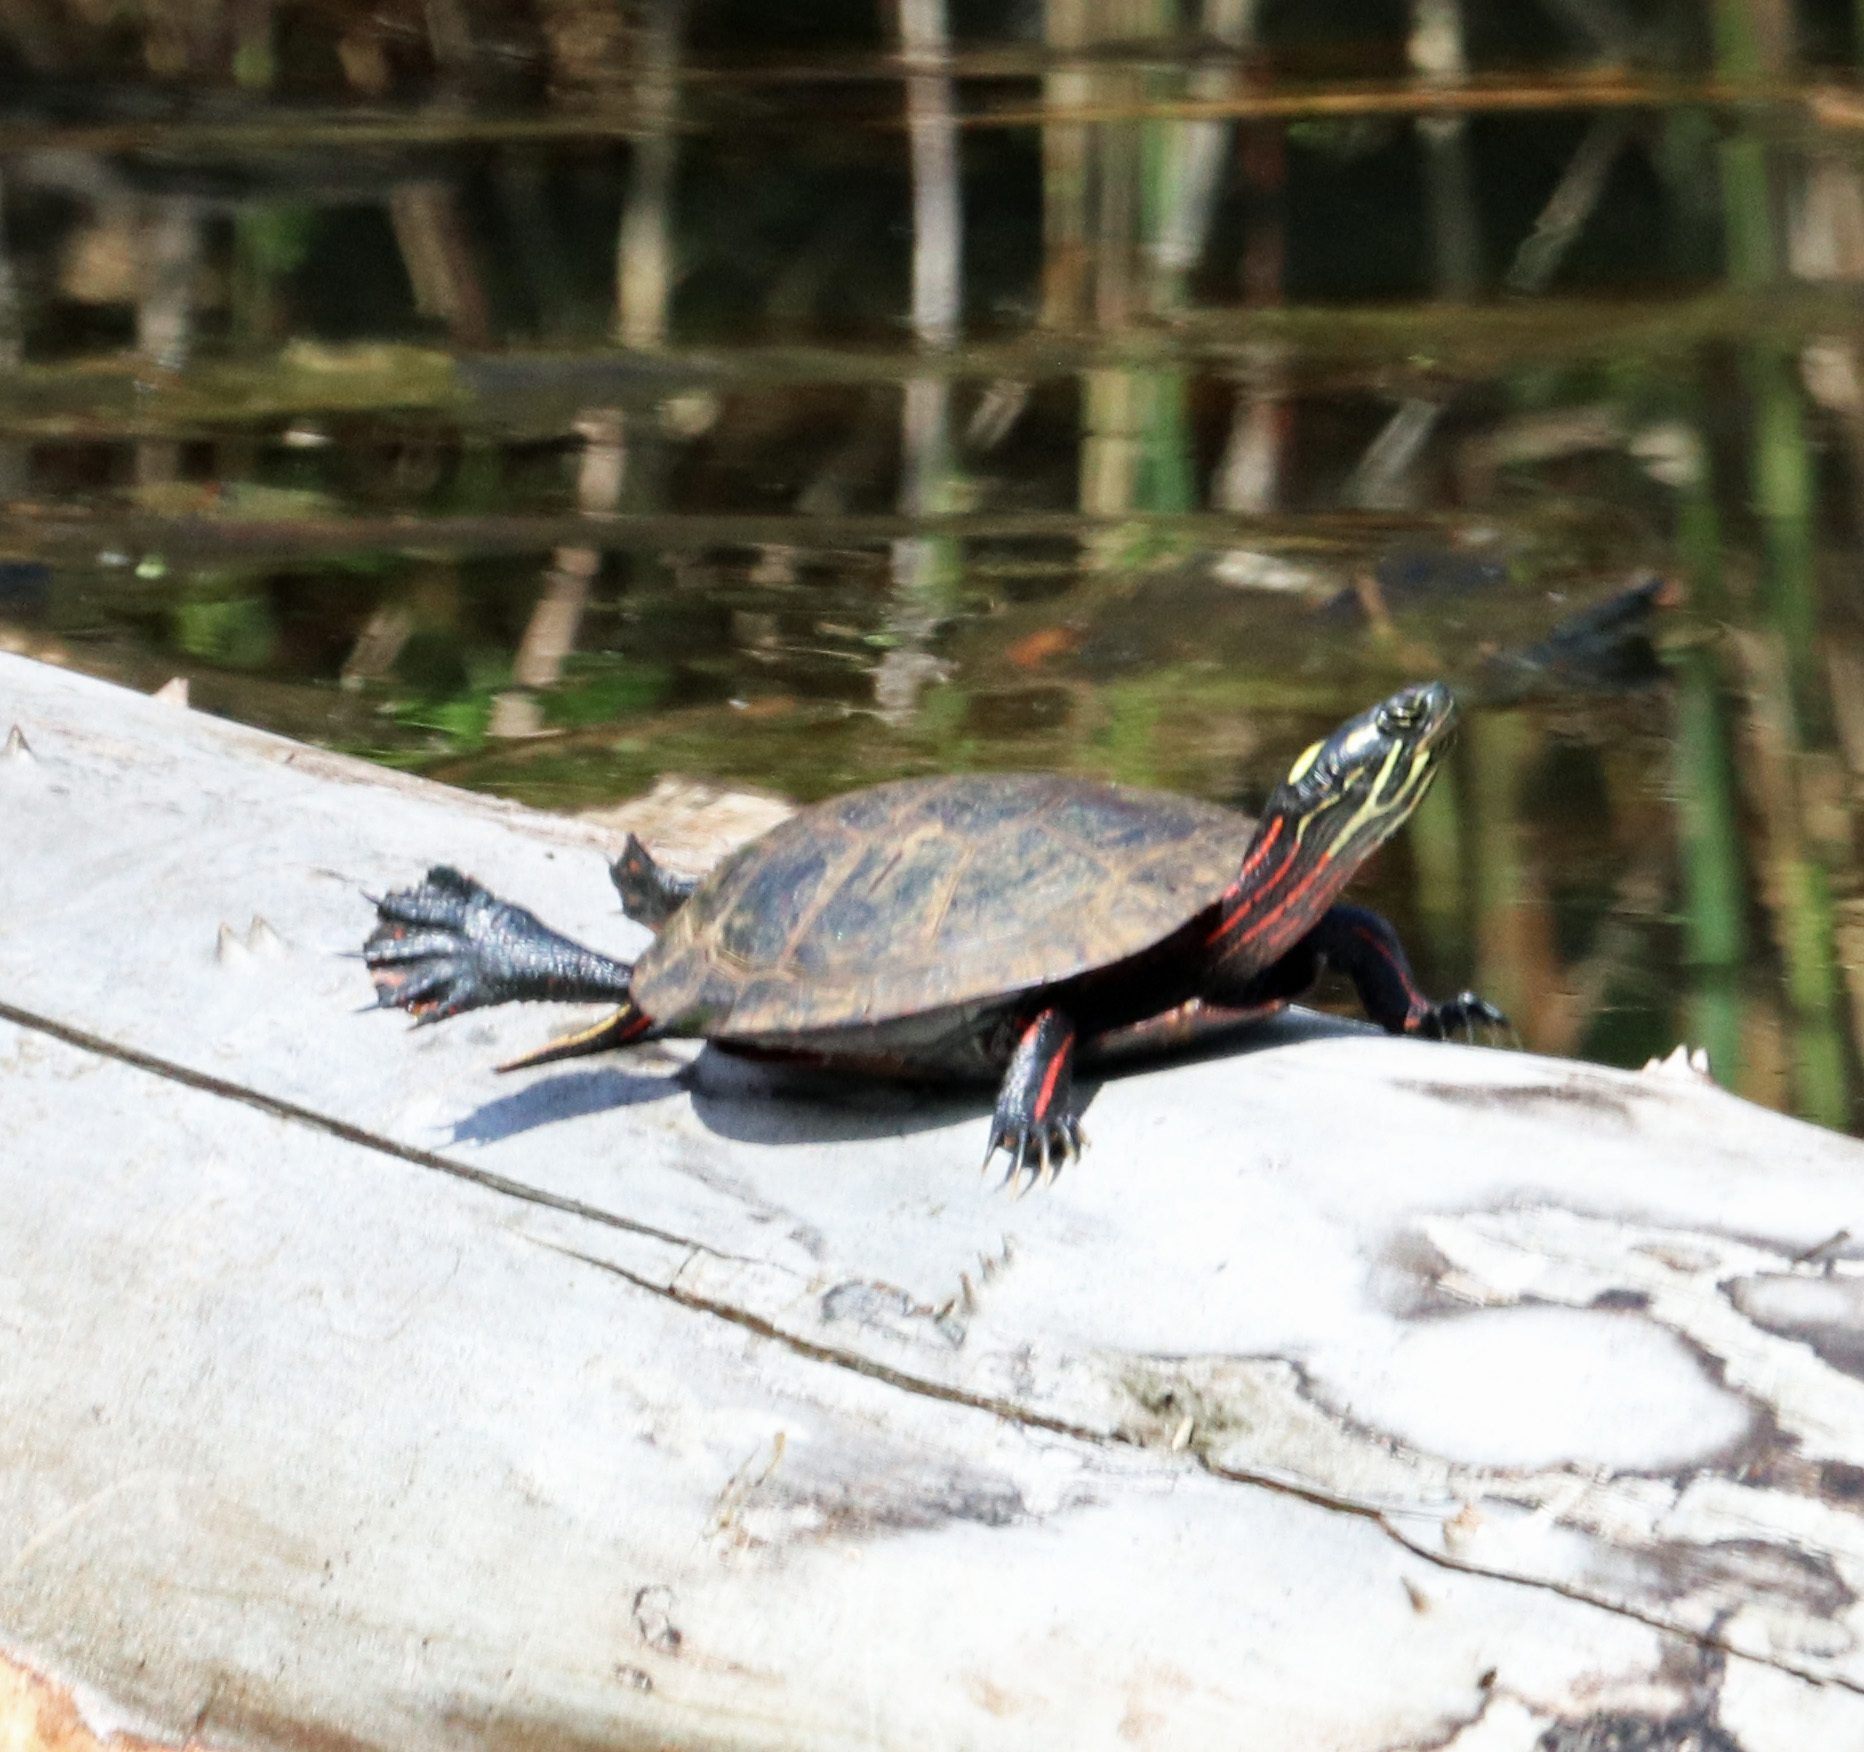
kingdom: Animalia
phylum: Chordata
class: Testudines
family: Emydidae
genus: Chrysemys
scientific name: Chrysemys picta
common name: Painted turtle
